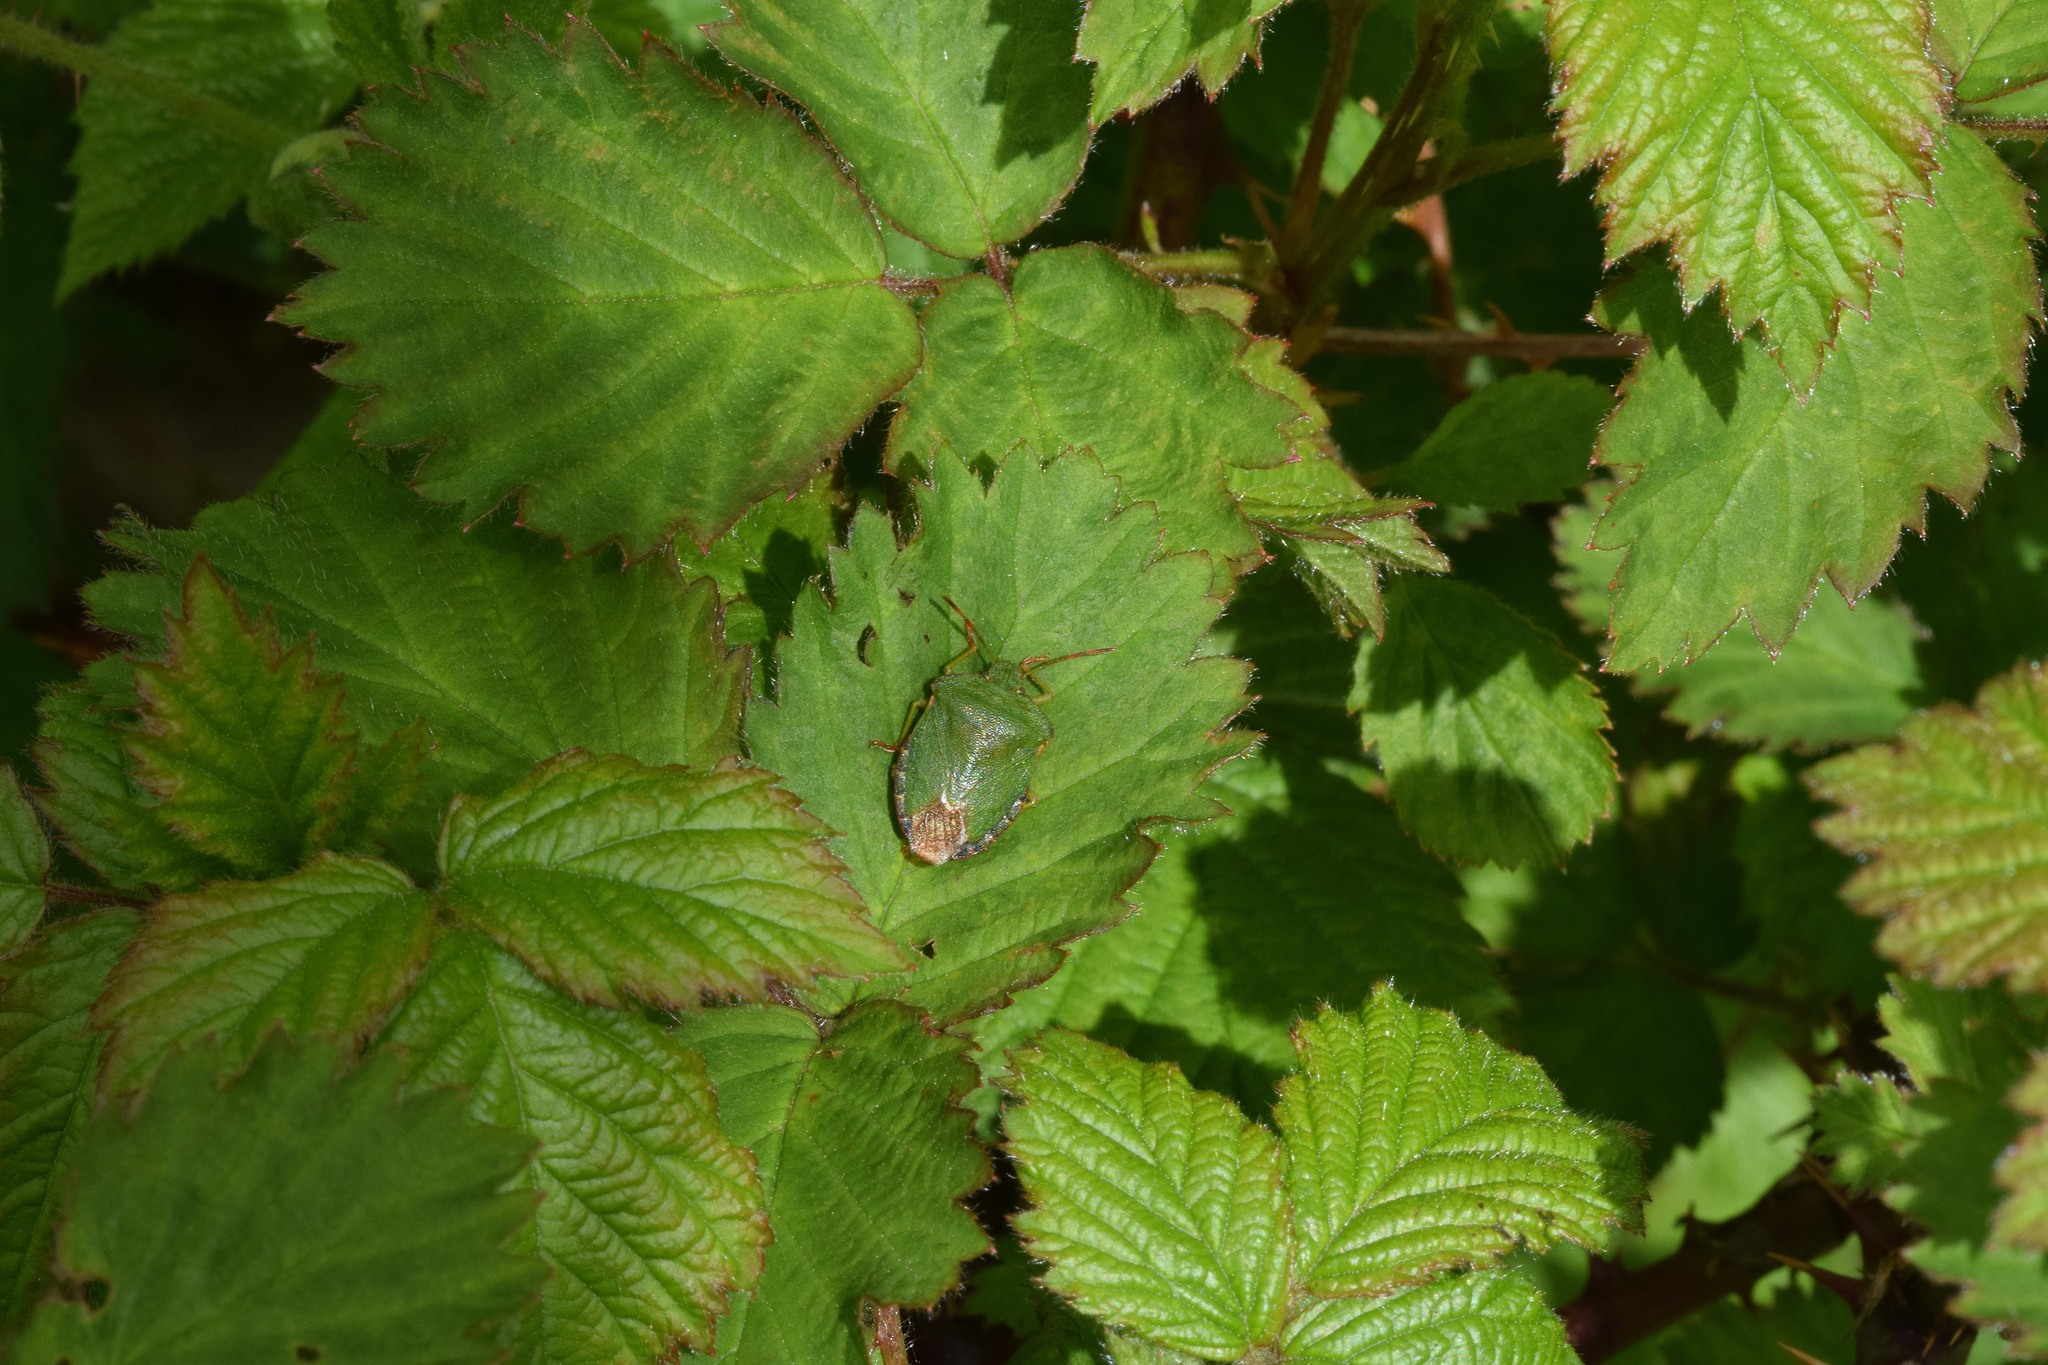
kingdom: Animalia
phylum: Arthropoda
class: Insecta
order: Hemiptera
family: Pentatomidae
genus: Palomena
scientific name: Palomena prasina
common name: Green shieldbug
